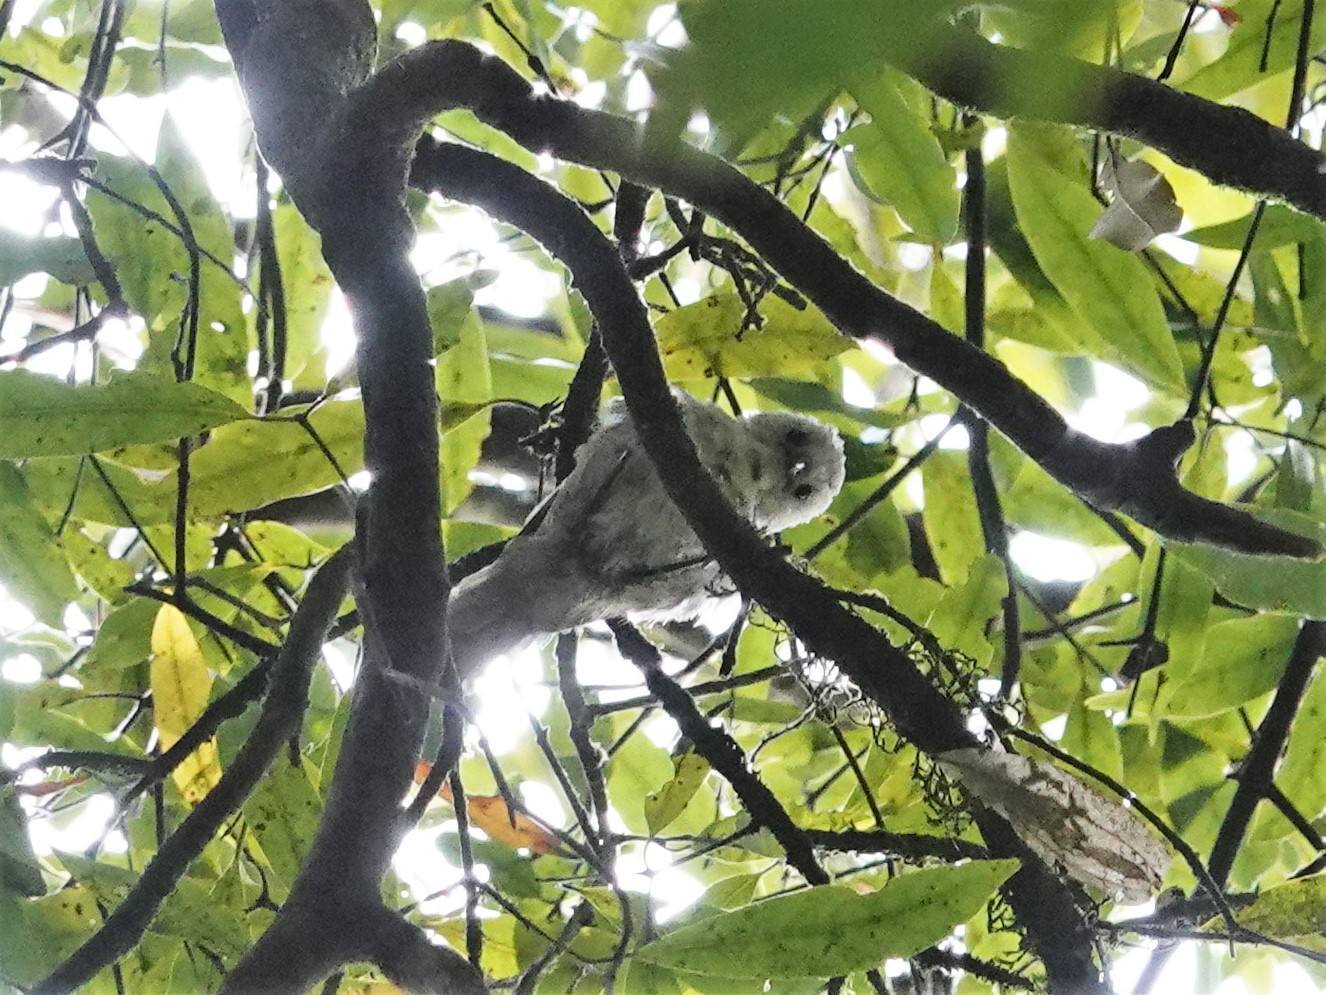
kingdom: Animalia
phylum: Chordata
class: Aves
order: Passeriformes
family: Acanthizidae
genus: Mohoua
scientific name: Mohoua albicilla
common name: Whitehead
